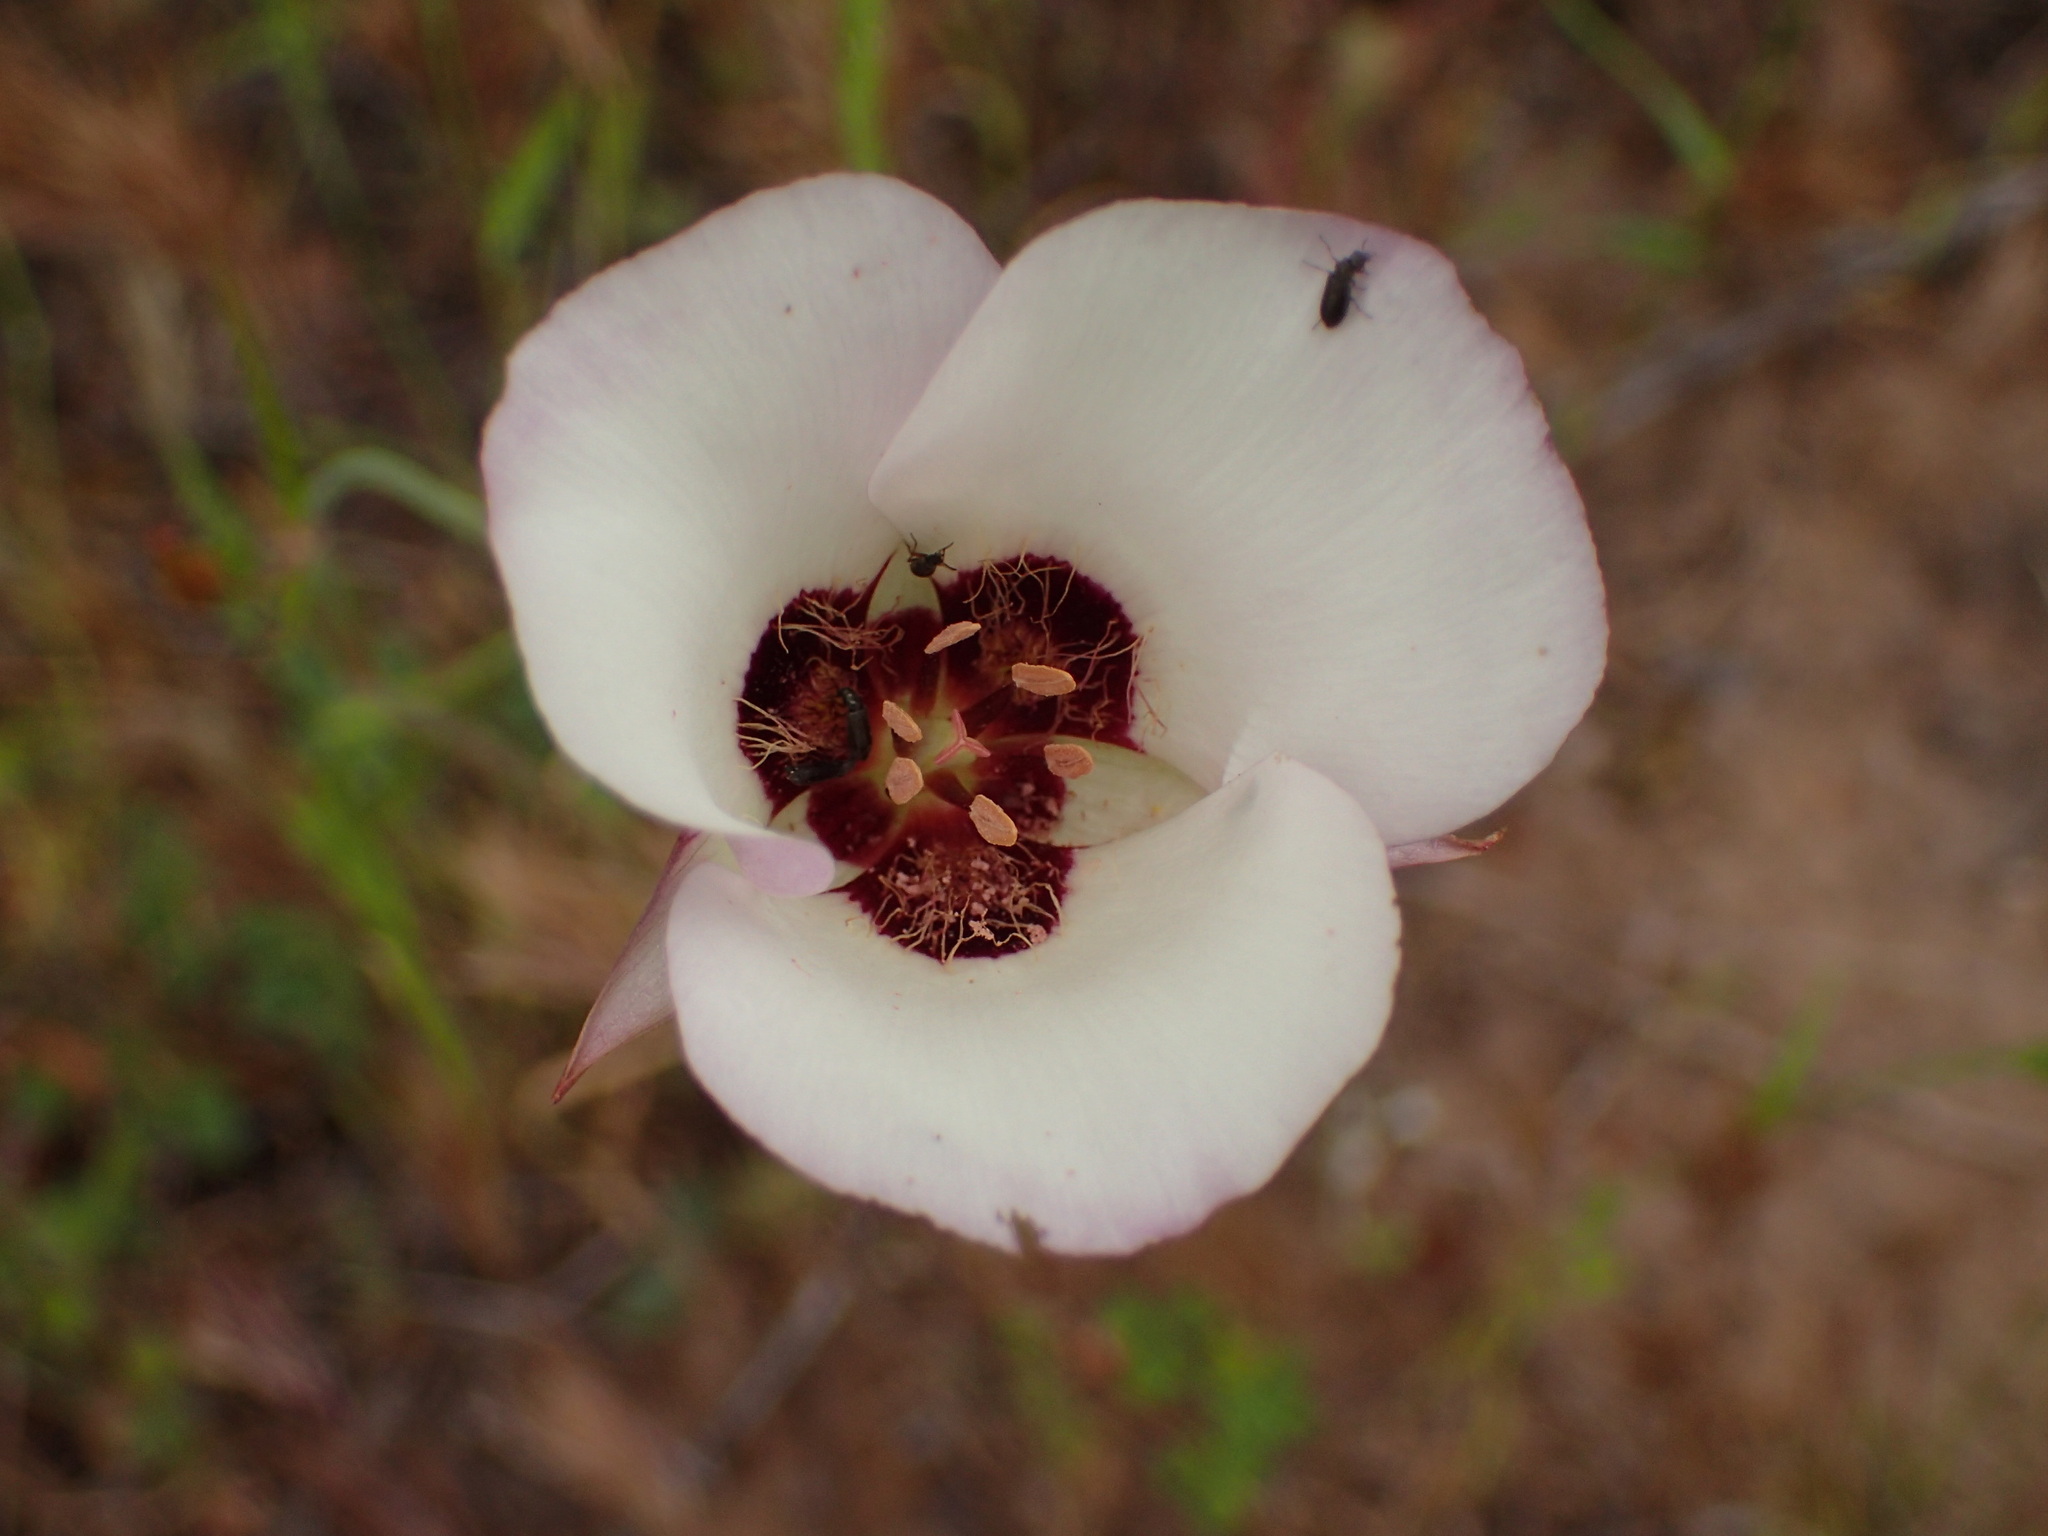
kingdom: Plantae
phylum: Tracheophyta
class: Liliopsida
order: Liliales
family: Liliaceae
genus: Calochortus
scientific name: Calochortus catalinae
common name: Catalina mariposa-lily
